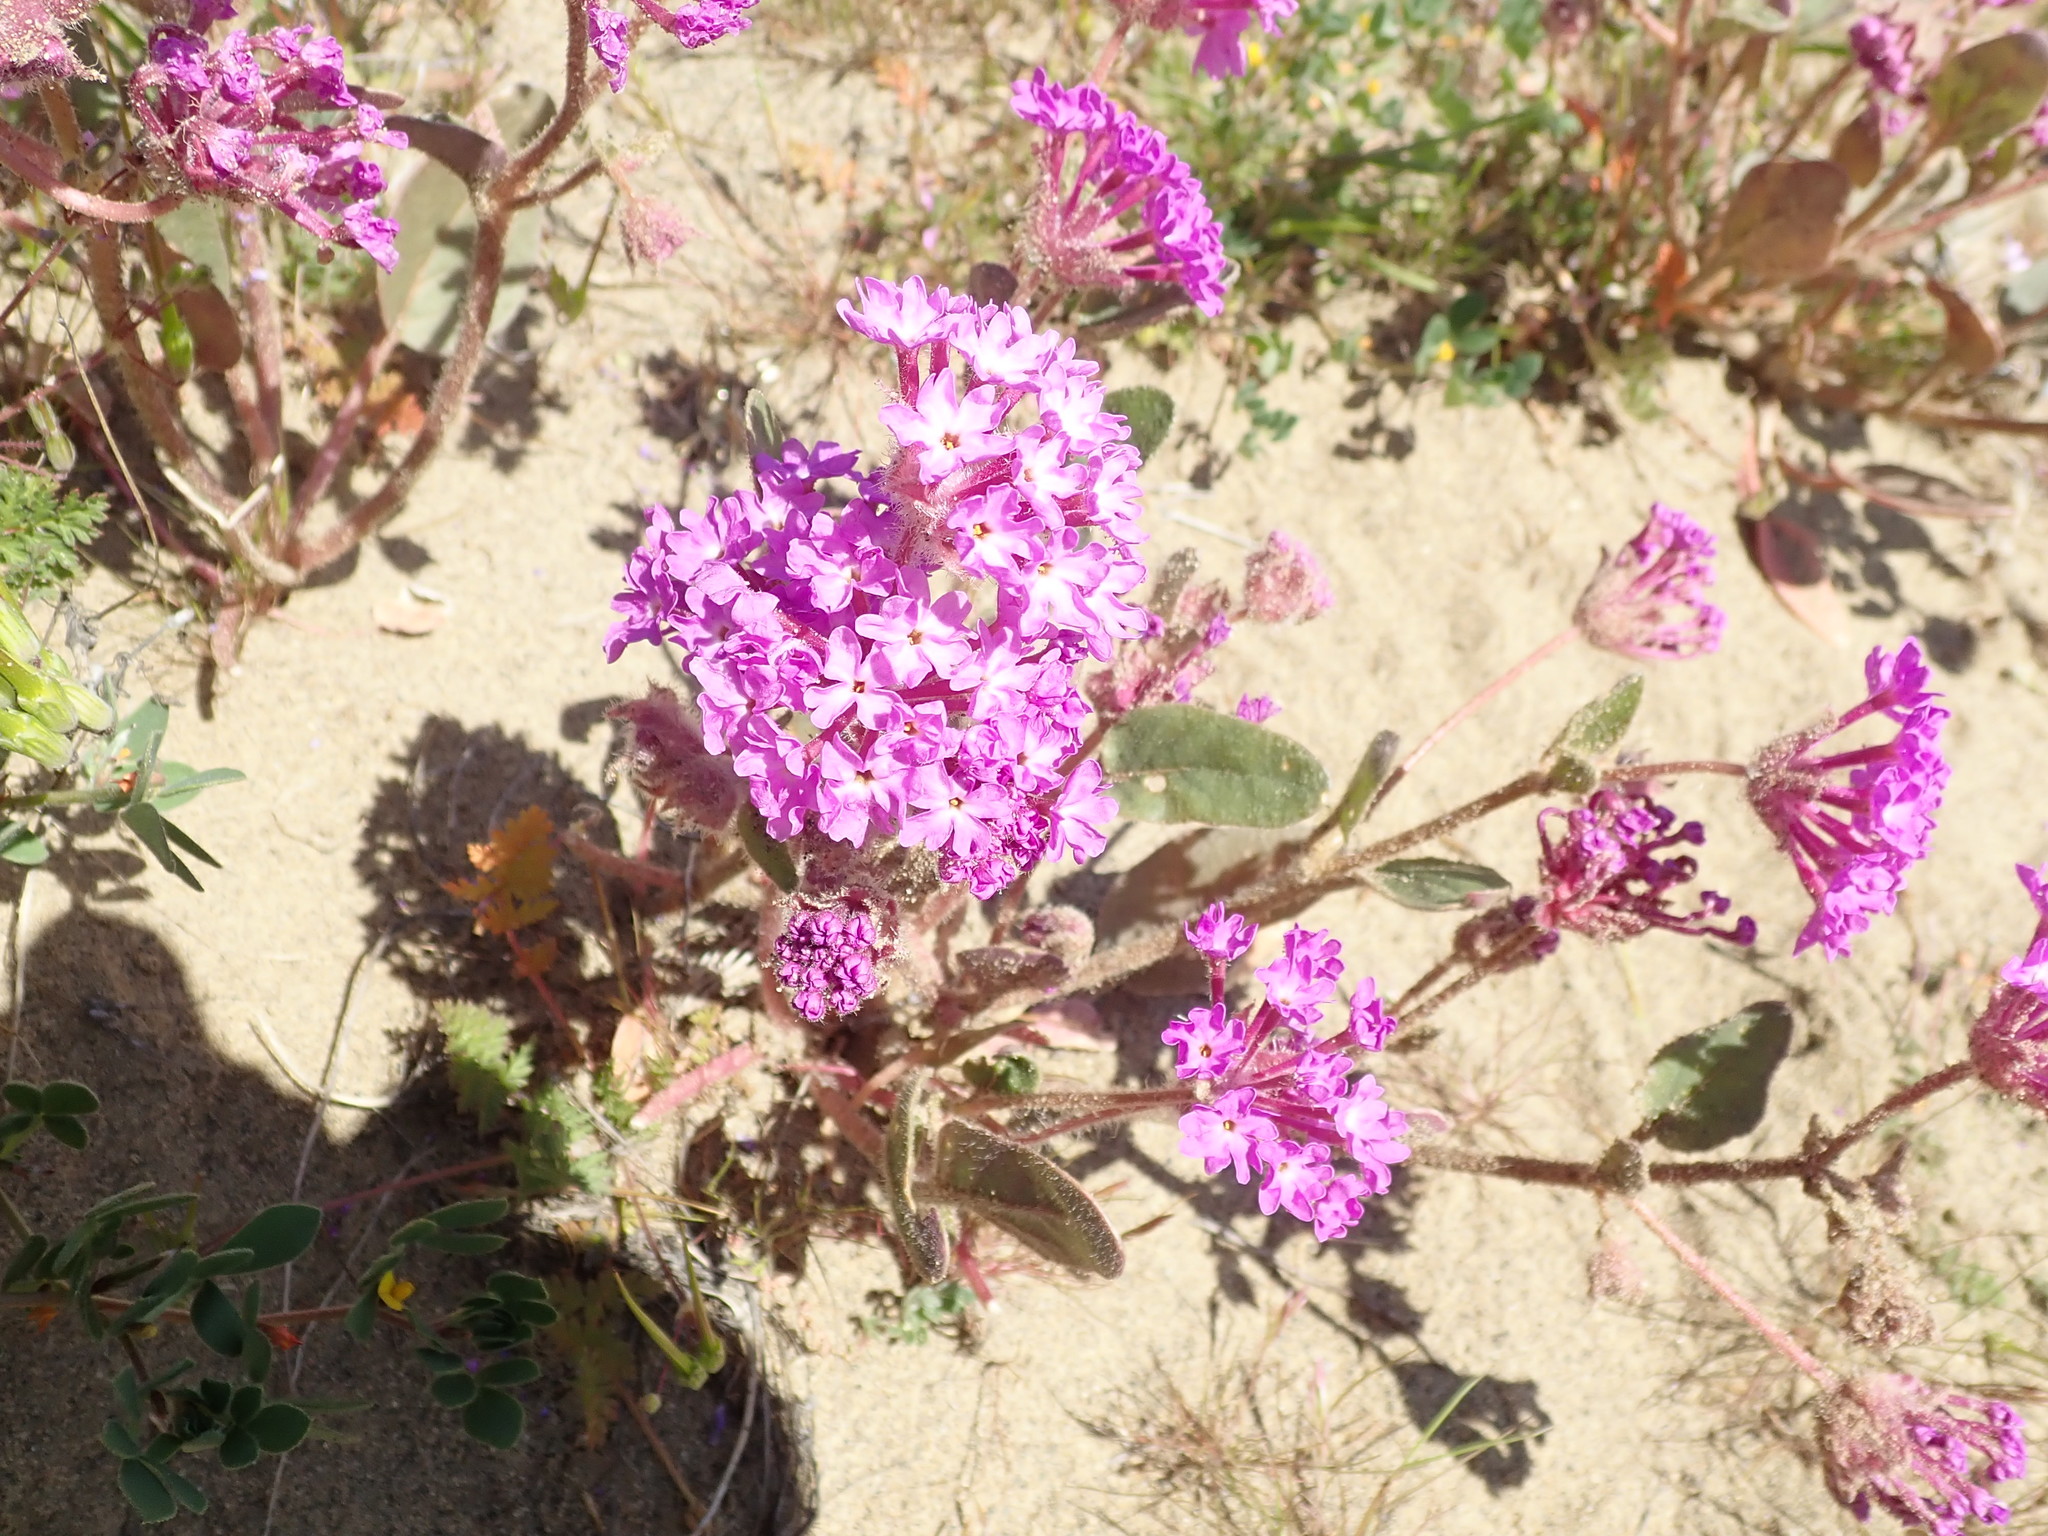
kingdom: Plantae
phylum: Tracheophyta
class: Magnoliopsida
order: Caryophyllales
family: Nyctaginaceae
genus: Abronia
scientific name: Abronia pogonantha
